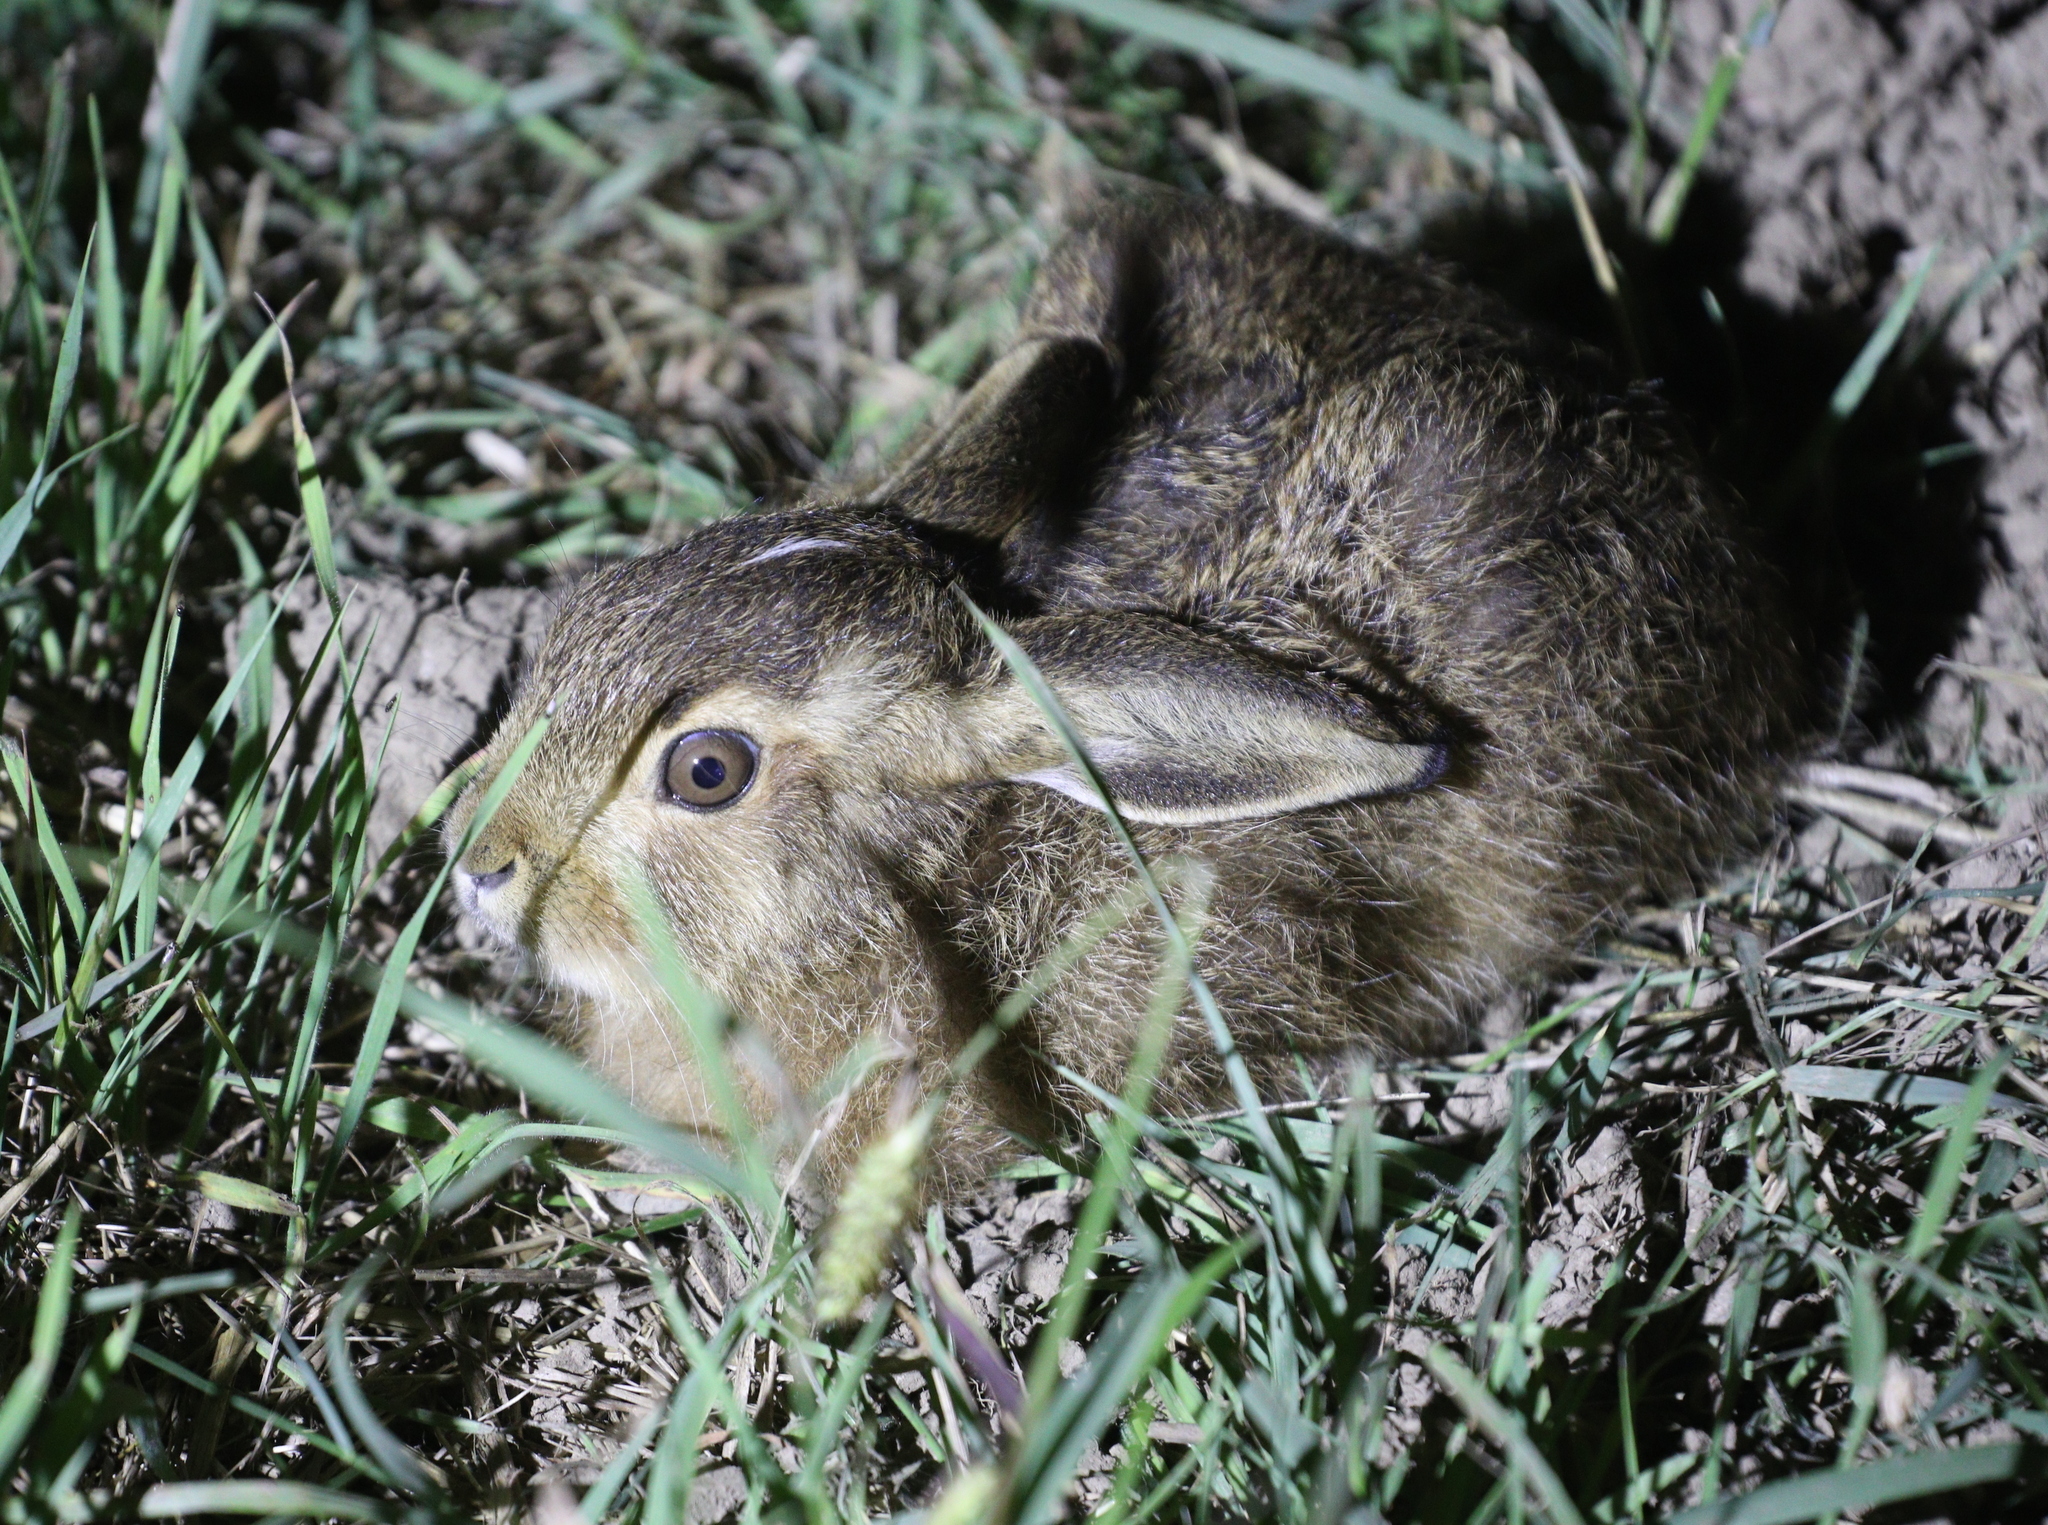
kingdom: Animalia
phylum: Chordata
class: Mammalia
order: Lagomorpha
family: Leporidae
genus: Lepus
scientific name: Lepus europaeus
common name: European hare
